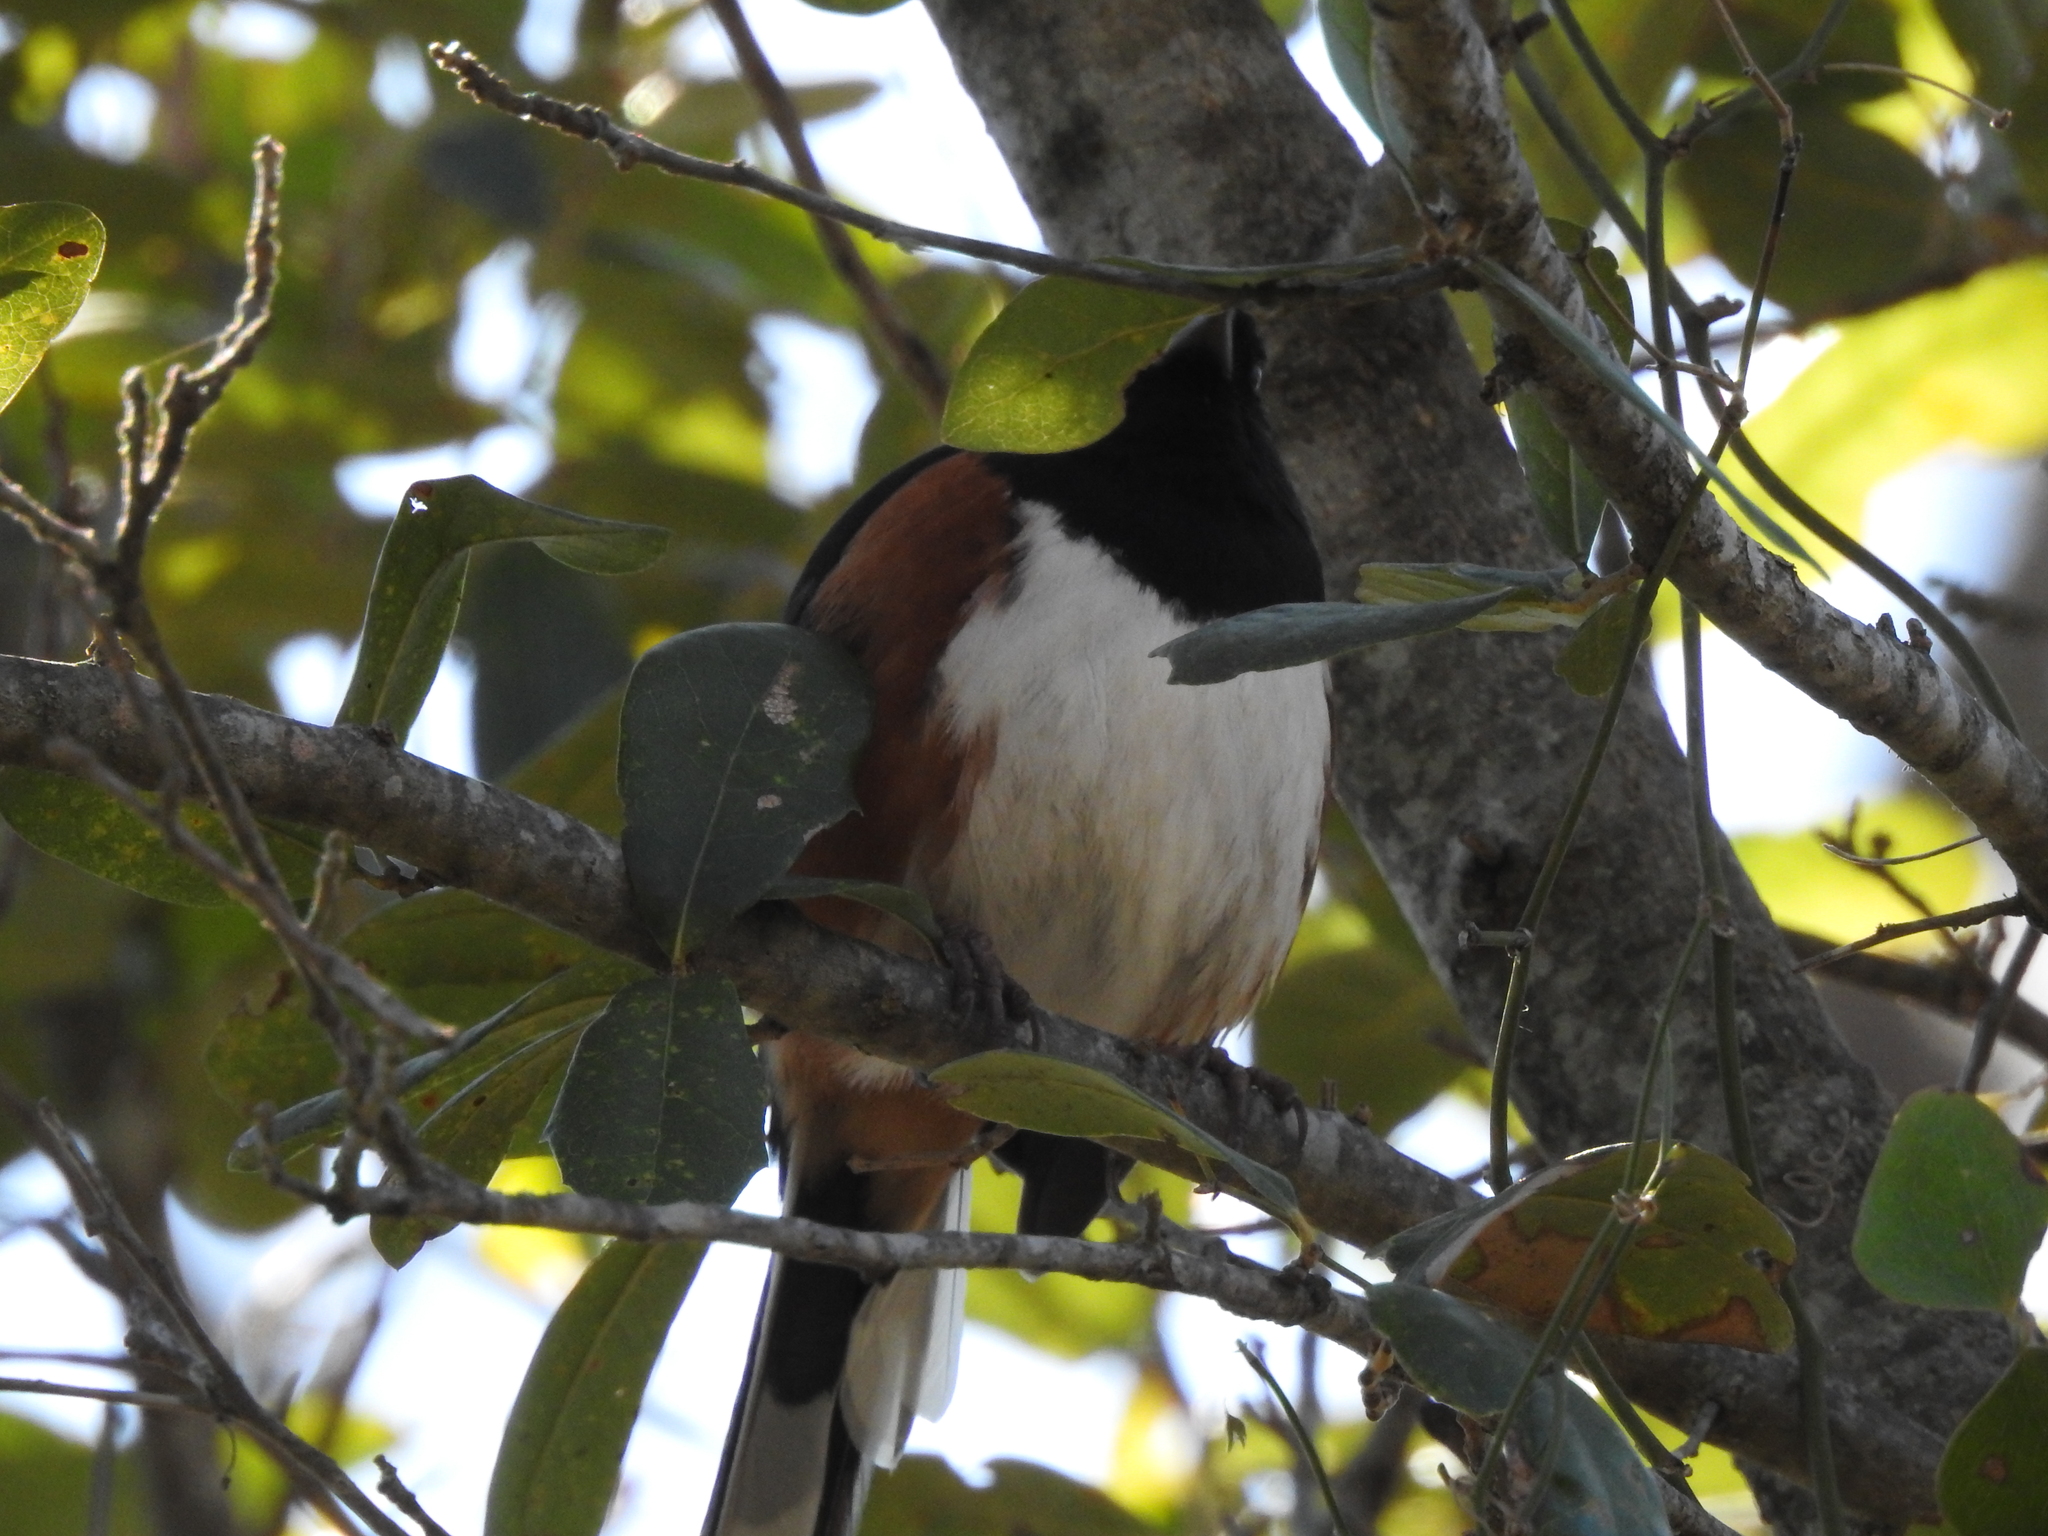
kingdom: Animalia
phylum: Chordata
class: Aves
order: Passeriformes
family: Passerellidae
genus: Pipilo
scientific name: Pipilo maculatus
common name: Spotted towhee
